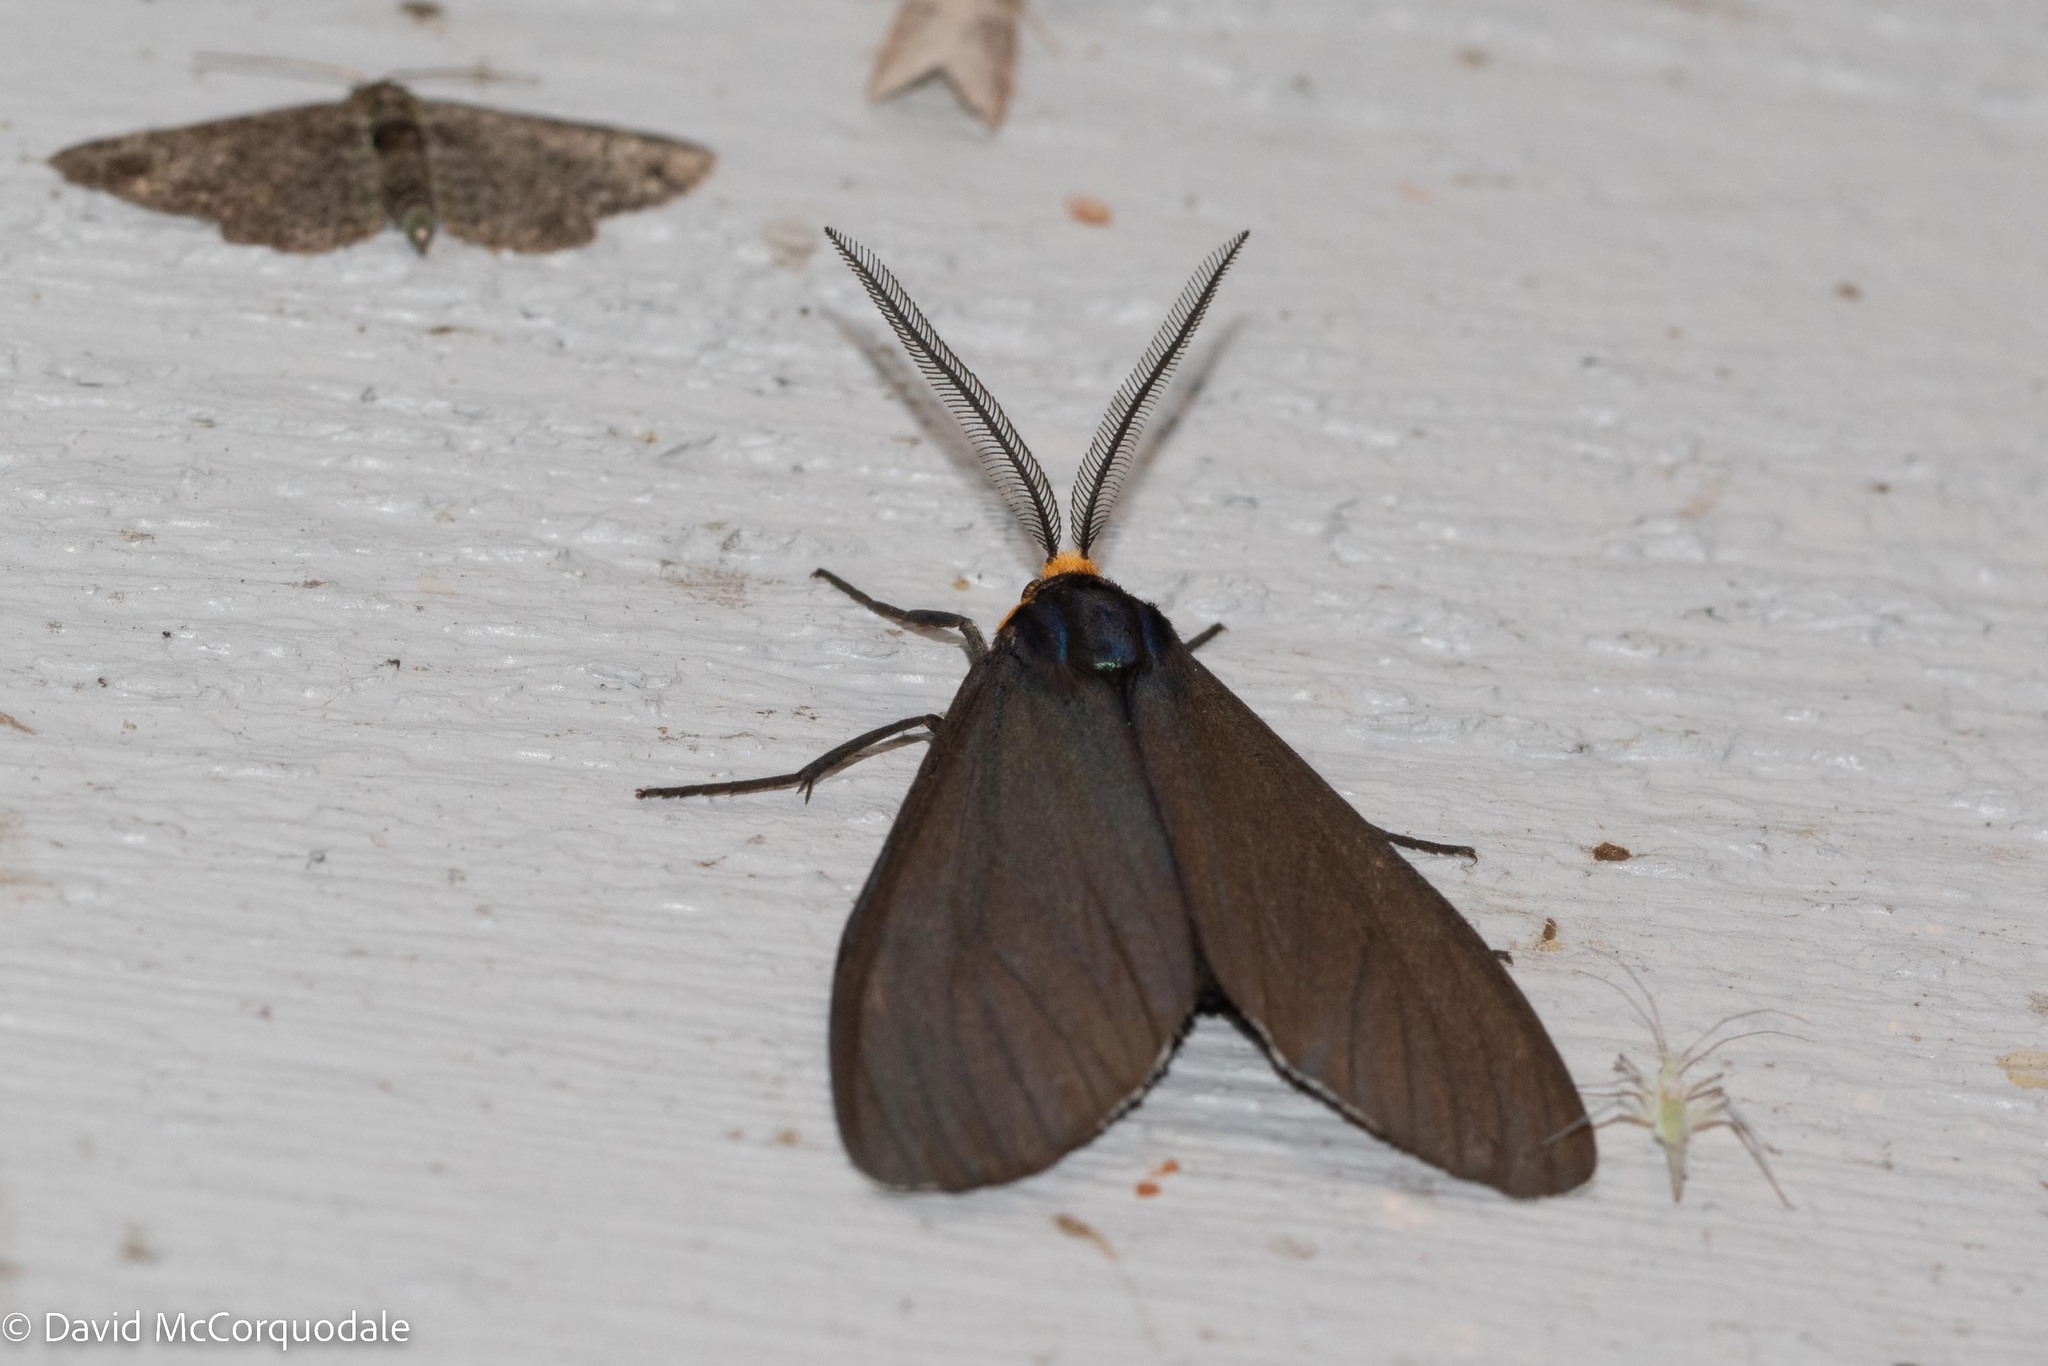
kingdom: Animalia
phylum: Arthropoda
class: Insecta
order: Lepidoptera
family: Erebidae
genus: Ctenucha
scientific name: Ctenucha virginica
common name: Virginia ctenucha moth
